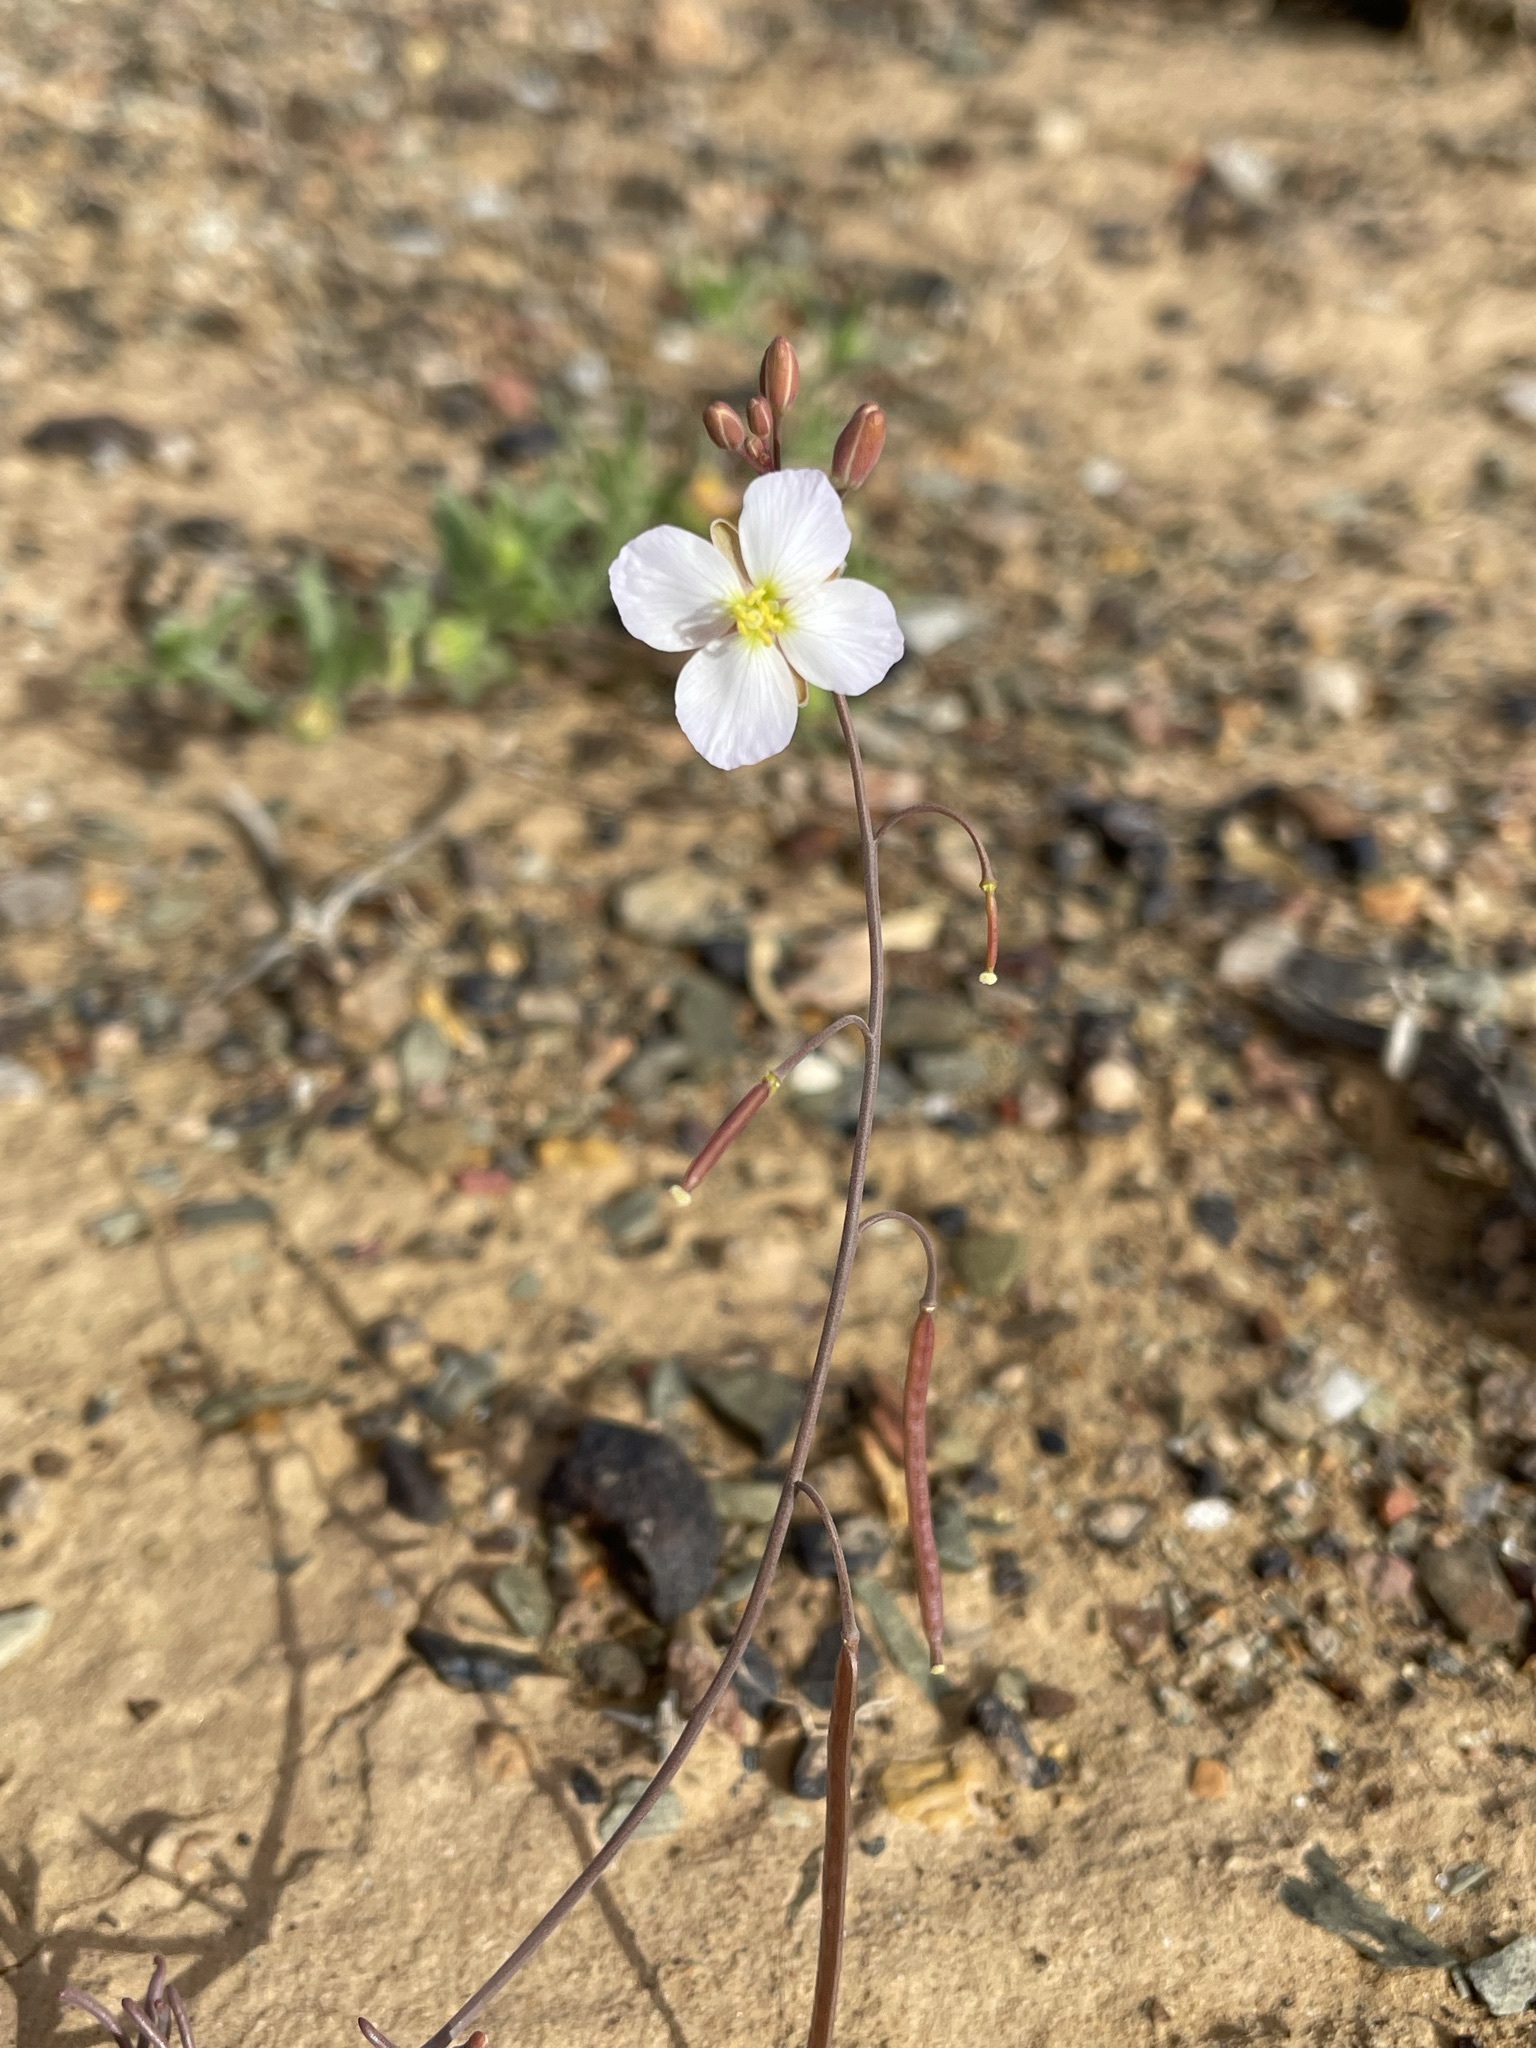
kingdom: Plantae
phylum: Tracheophyta
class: Magnoliopsida
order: Brassicales
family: Brassicaceae
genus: Heliophila
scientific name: Heliophila deserticola
